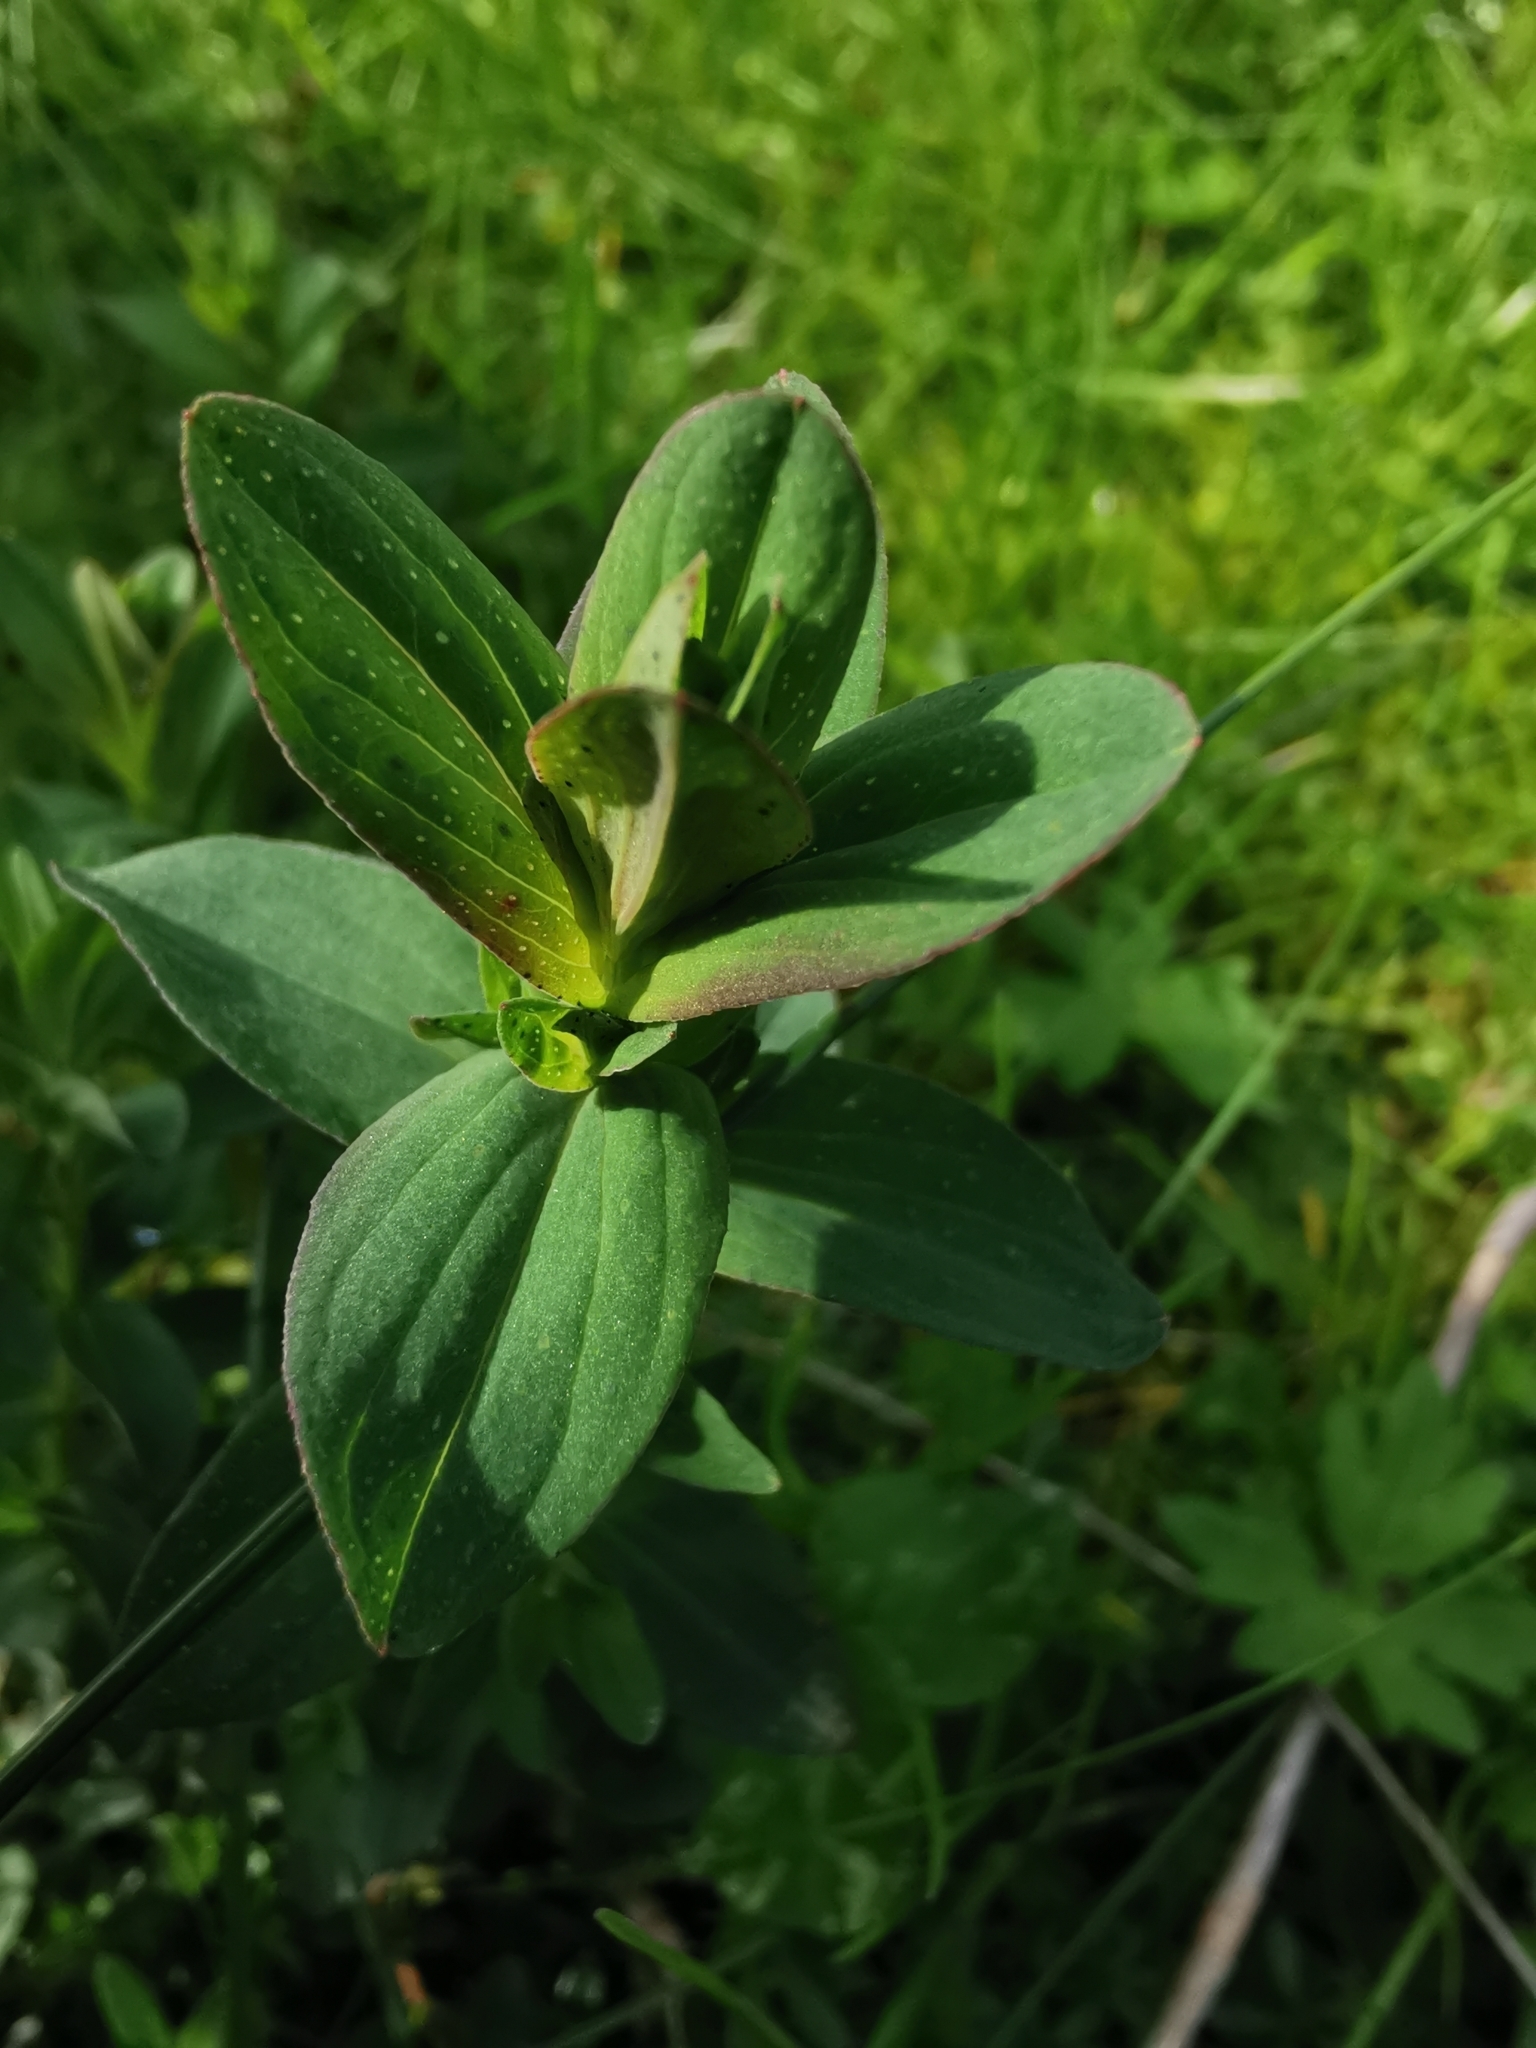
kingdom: Plantae
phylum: Tracheophyta
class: Magnoliopsida
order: Malpighiales
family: Hypericaceae
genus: Hypericum
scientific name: Hypericum perforatum
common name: Common st. johnswort
